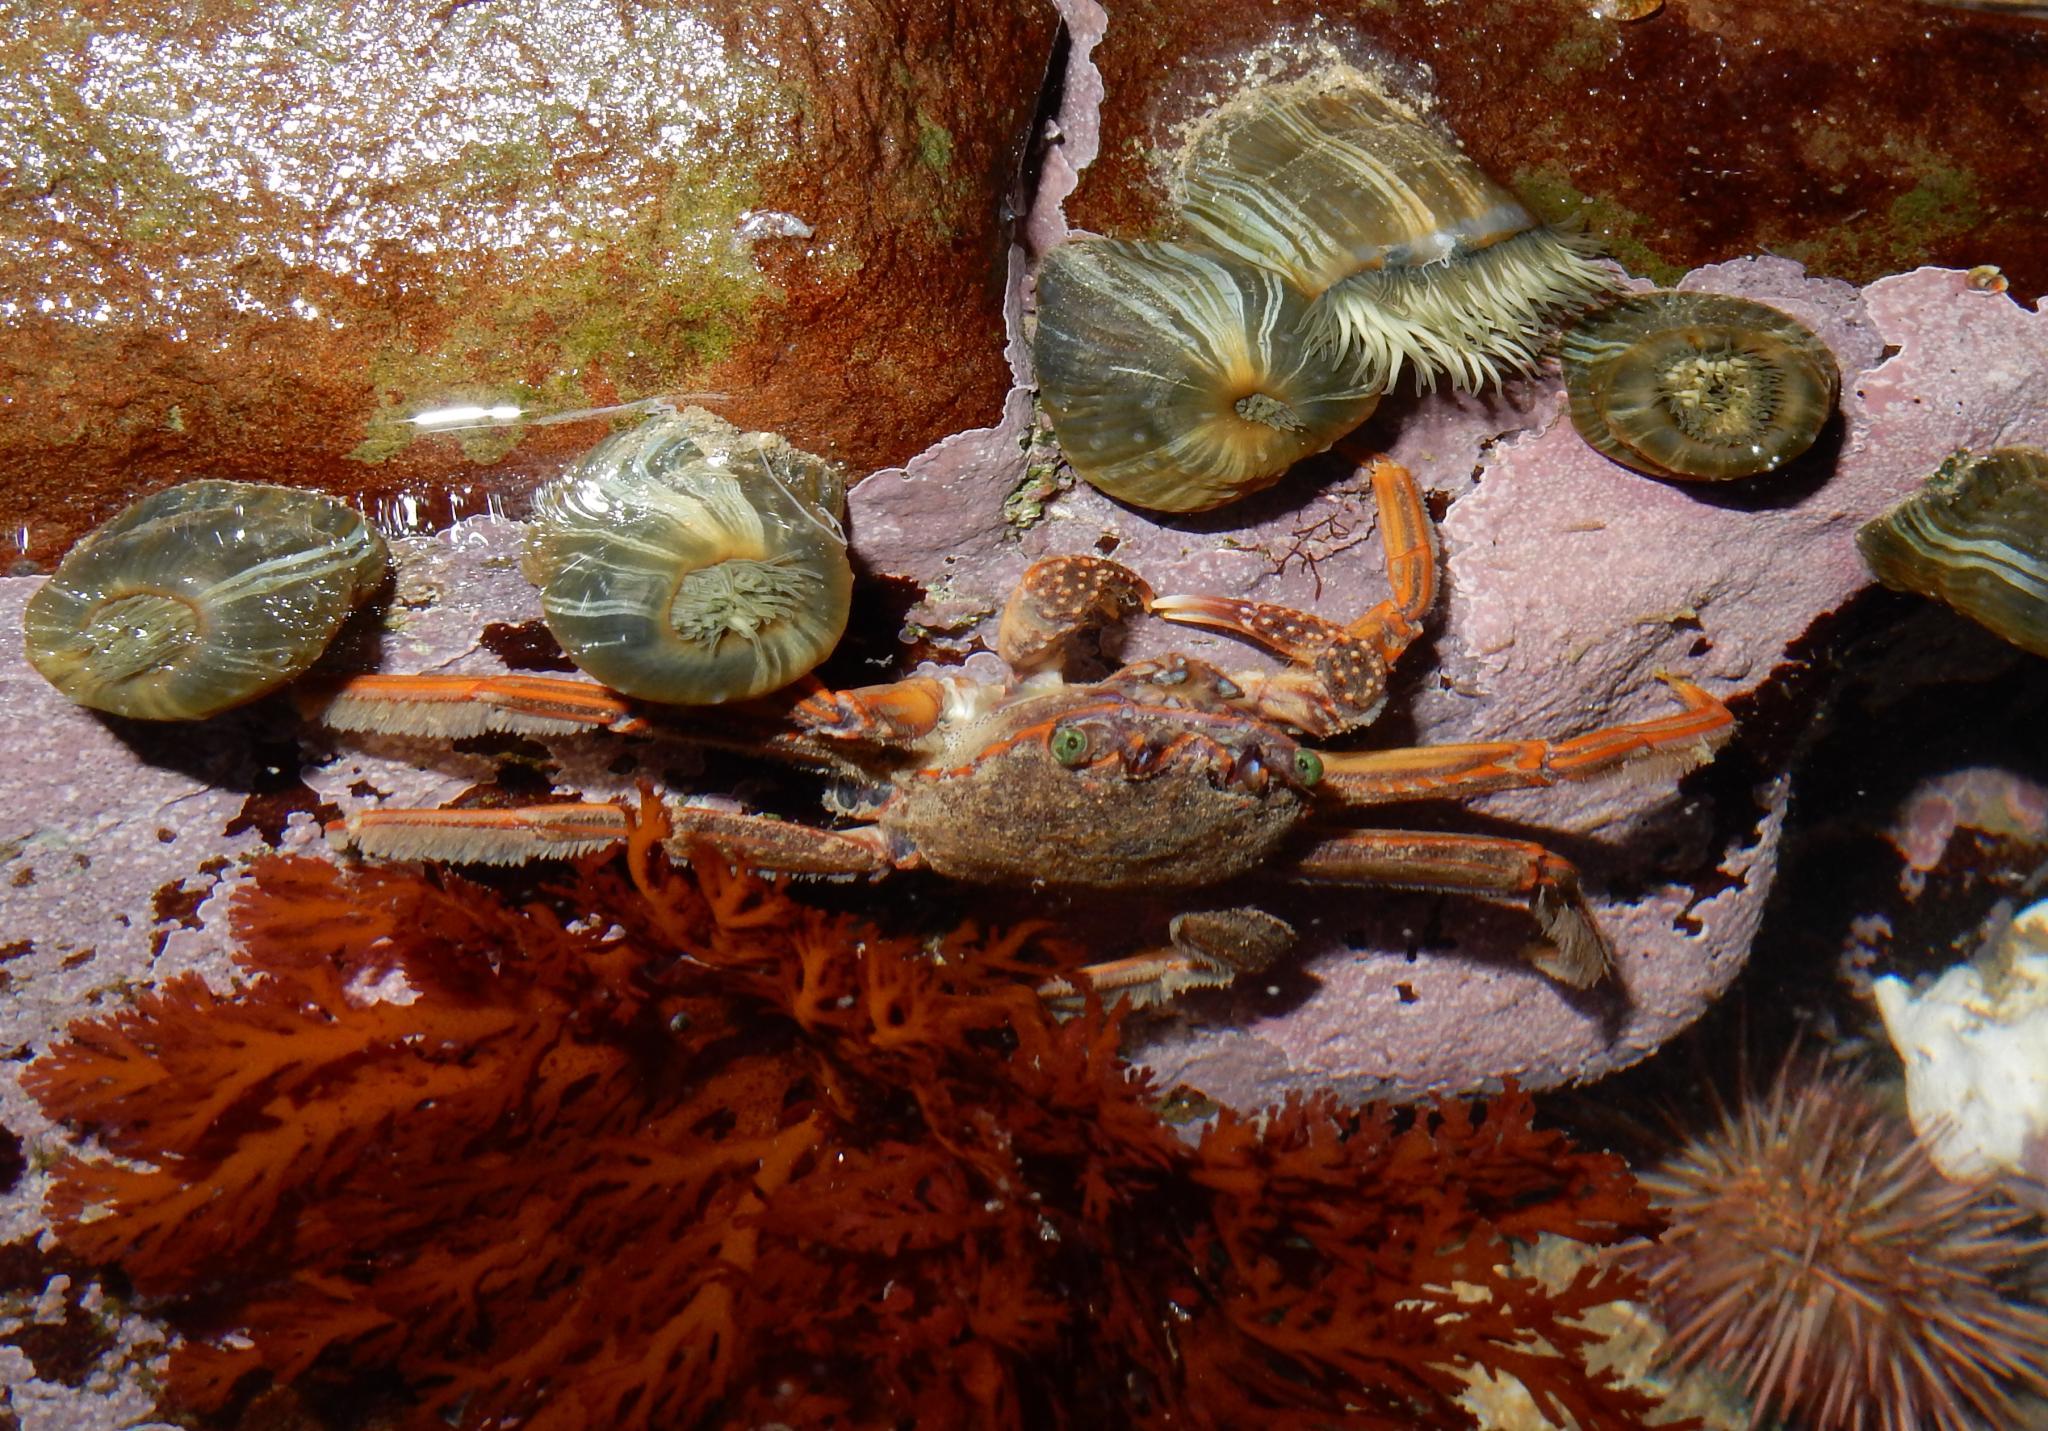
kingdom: Animalia
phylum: Arthropoda
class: Malacostraca
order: Decapoda
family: Plagusiidae
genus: Guinusia
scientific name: Guinusia chabrus
